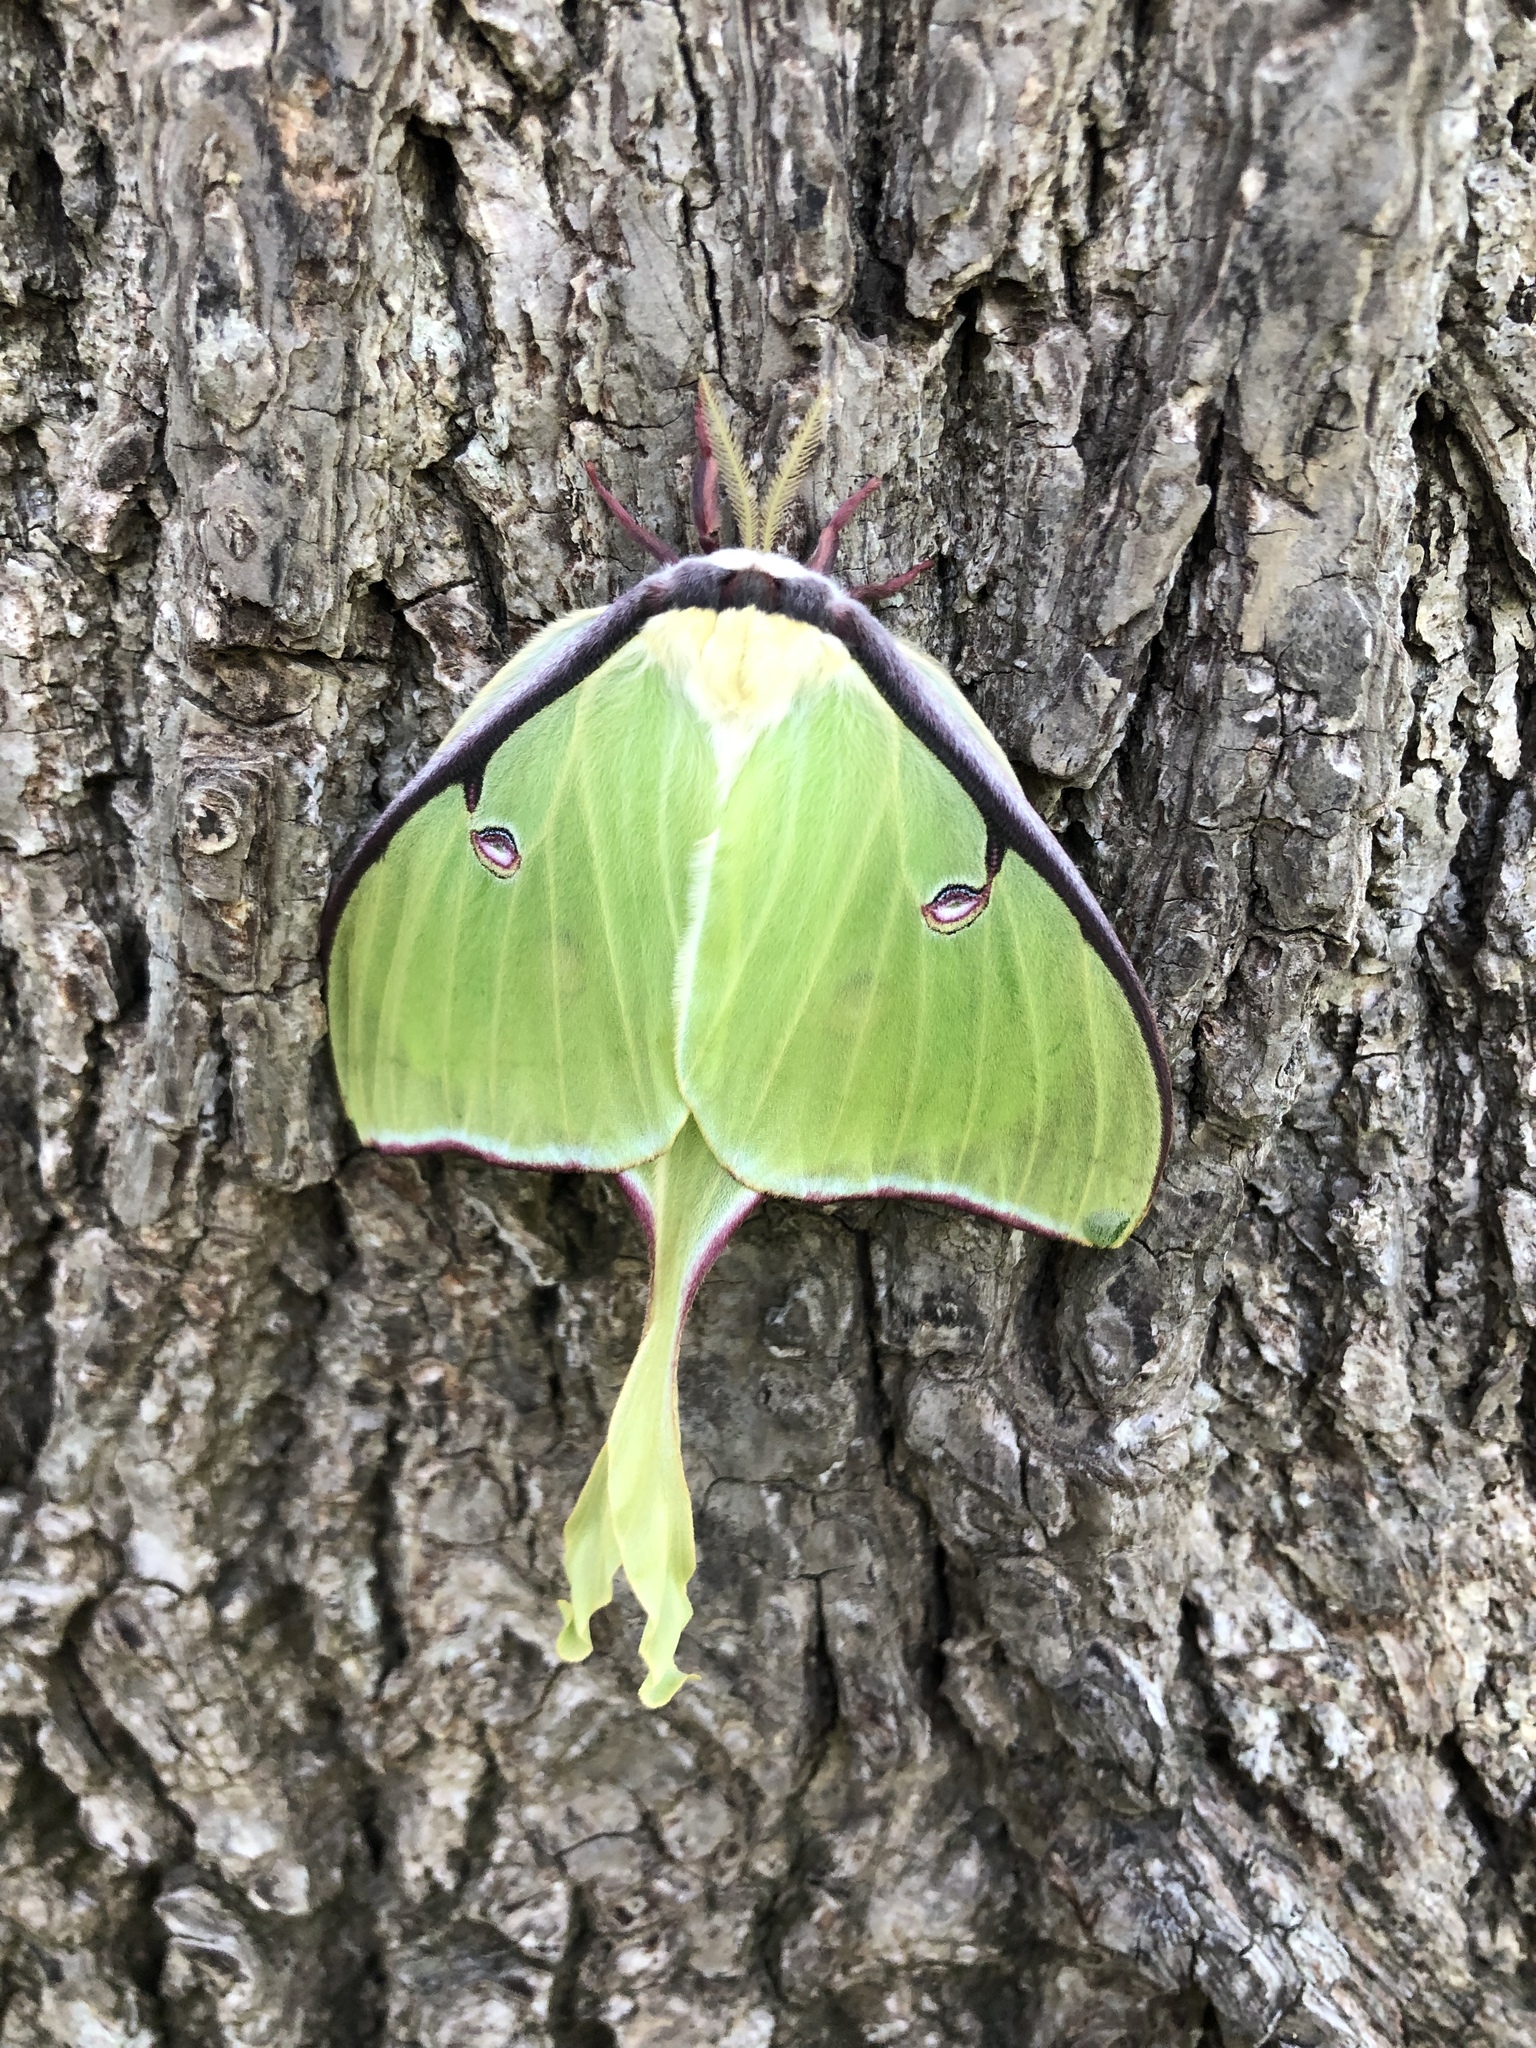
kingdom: Animalia
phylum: Arthropoda
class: Insecta
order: Lepidoptera
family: Saturniidae
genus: Actias
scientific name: Actias luna
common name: Luna moth
